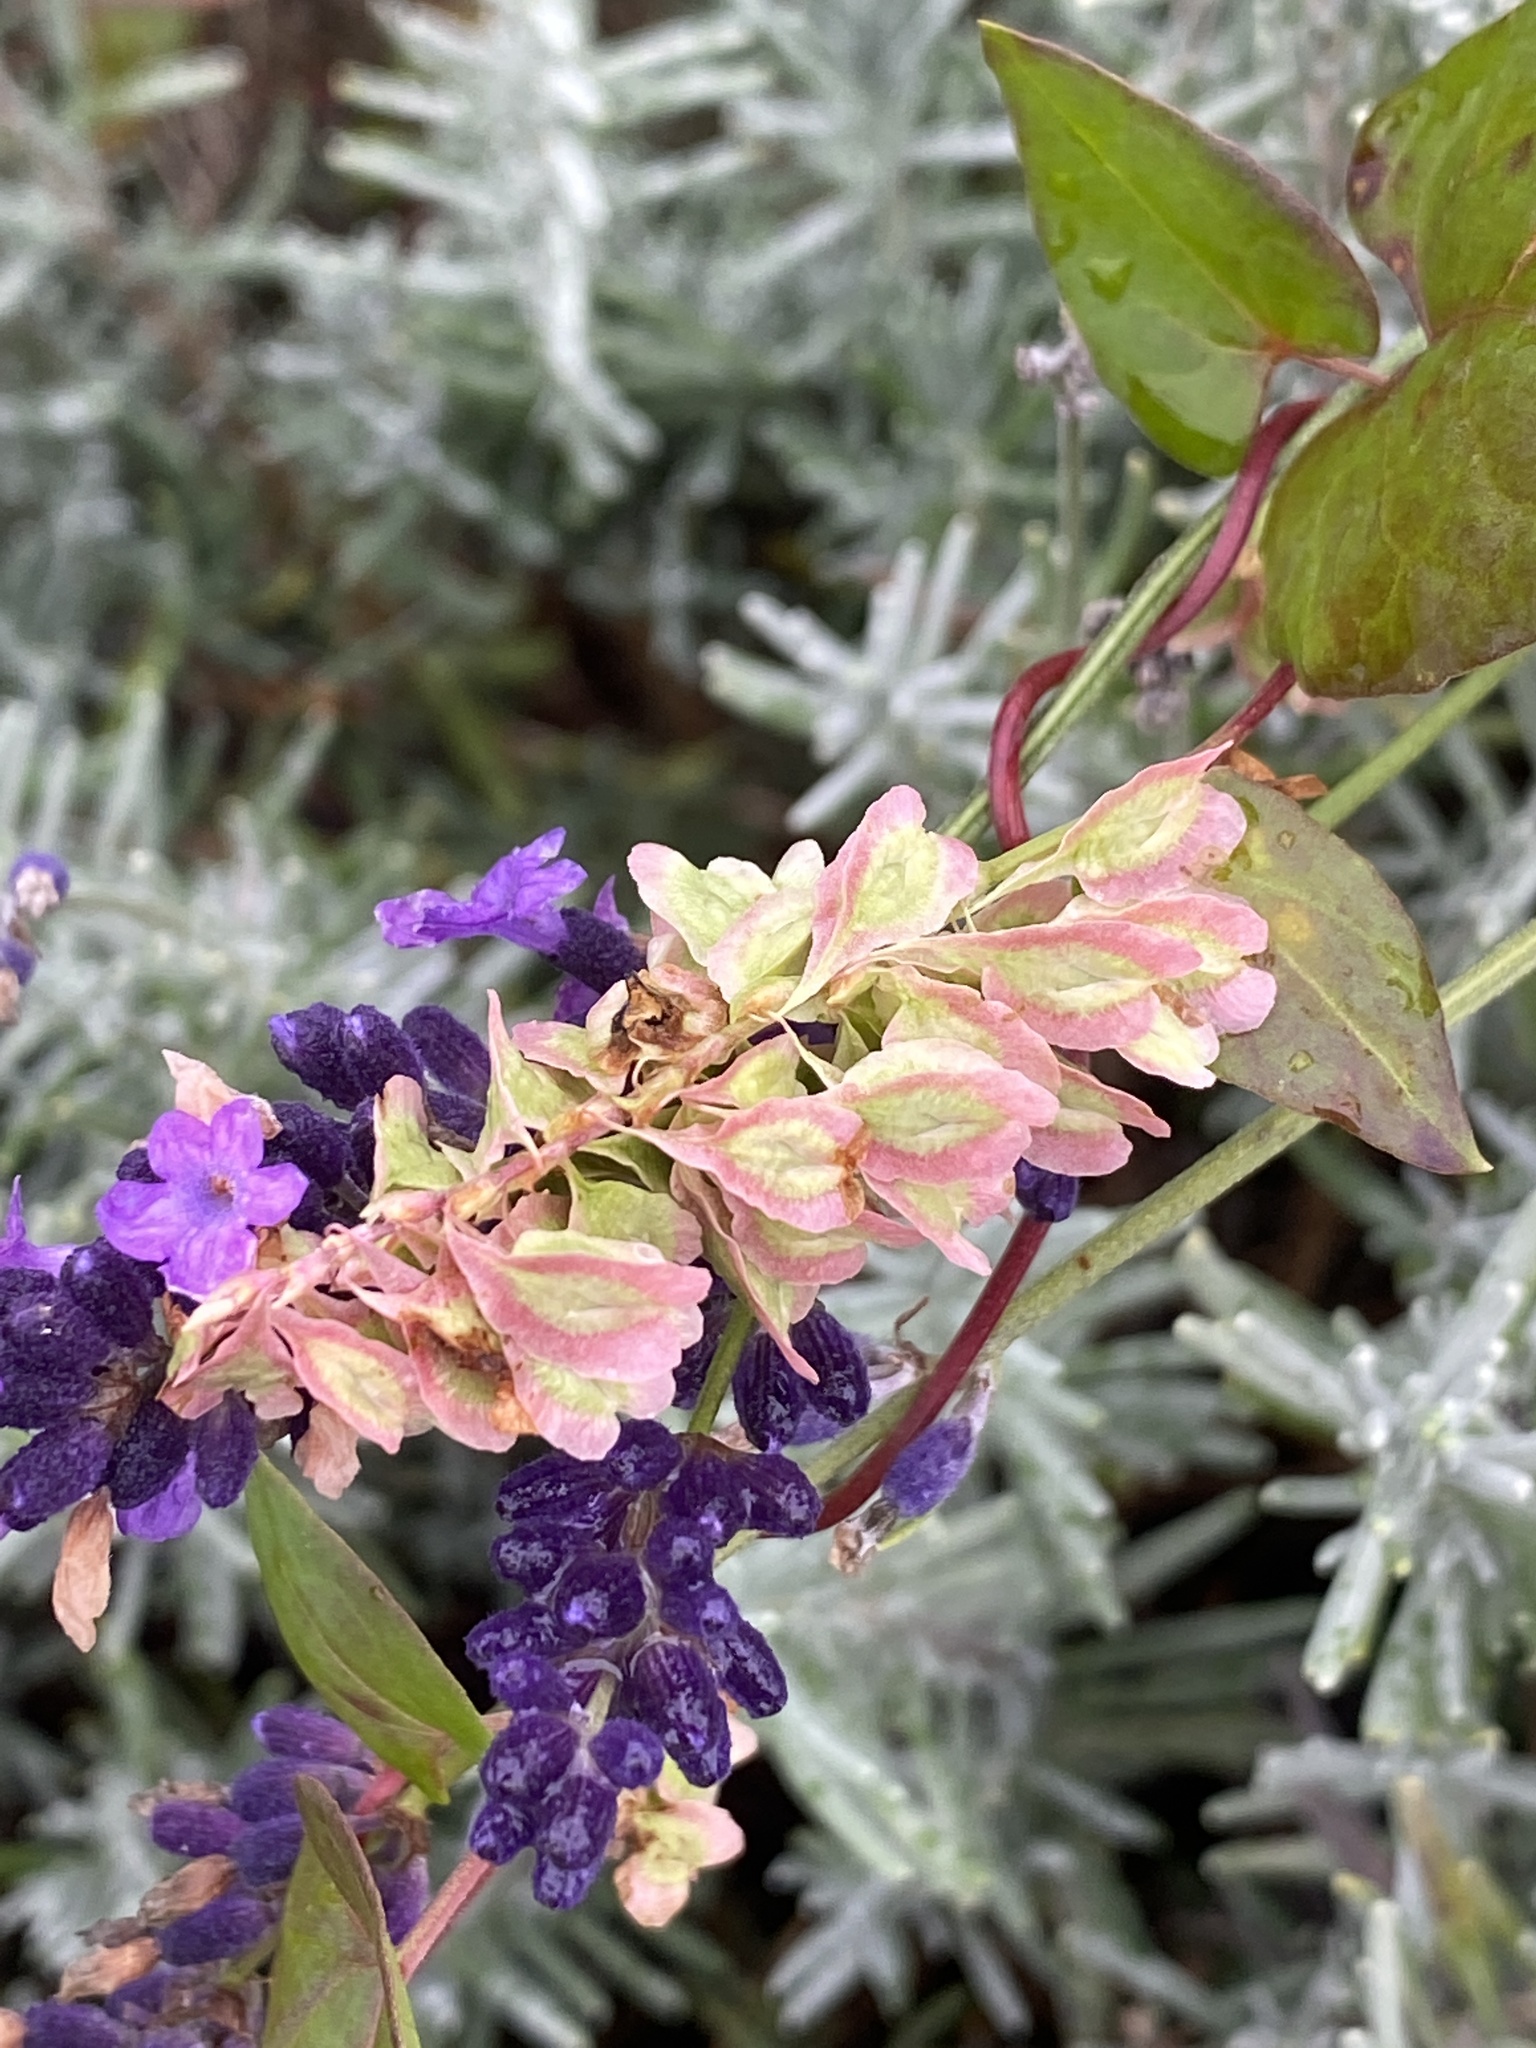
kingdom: Plantae
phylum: Tracheophyta
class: Magnoliopsida
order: Caryophyllales
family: Polygonaceae
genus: Fallopia
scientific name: Fallopia scandens
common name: Climbing false buckwheat
